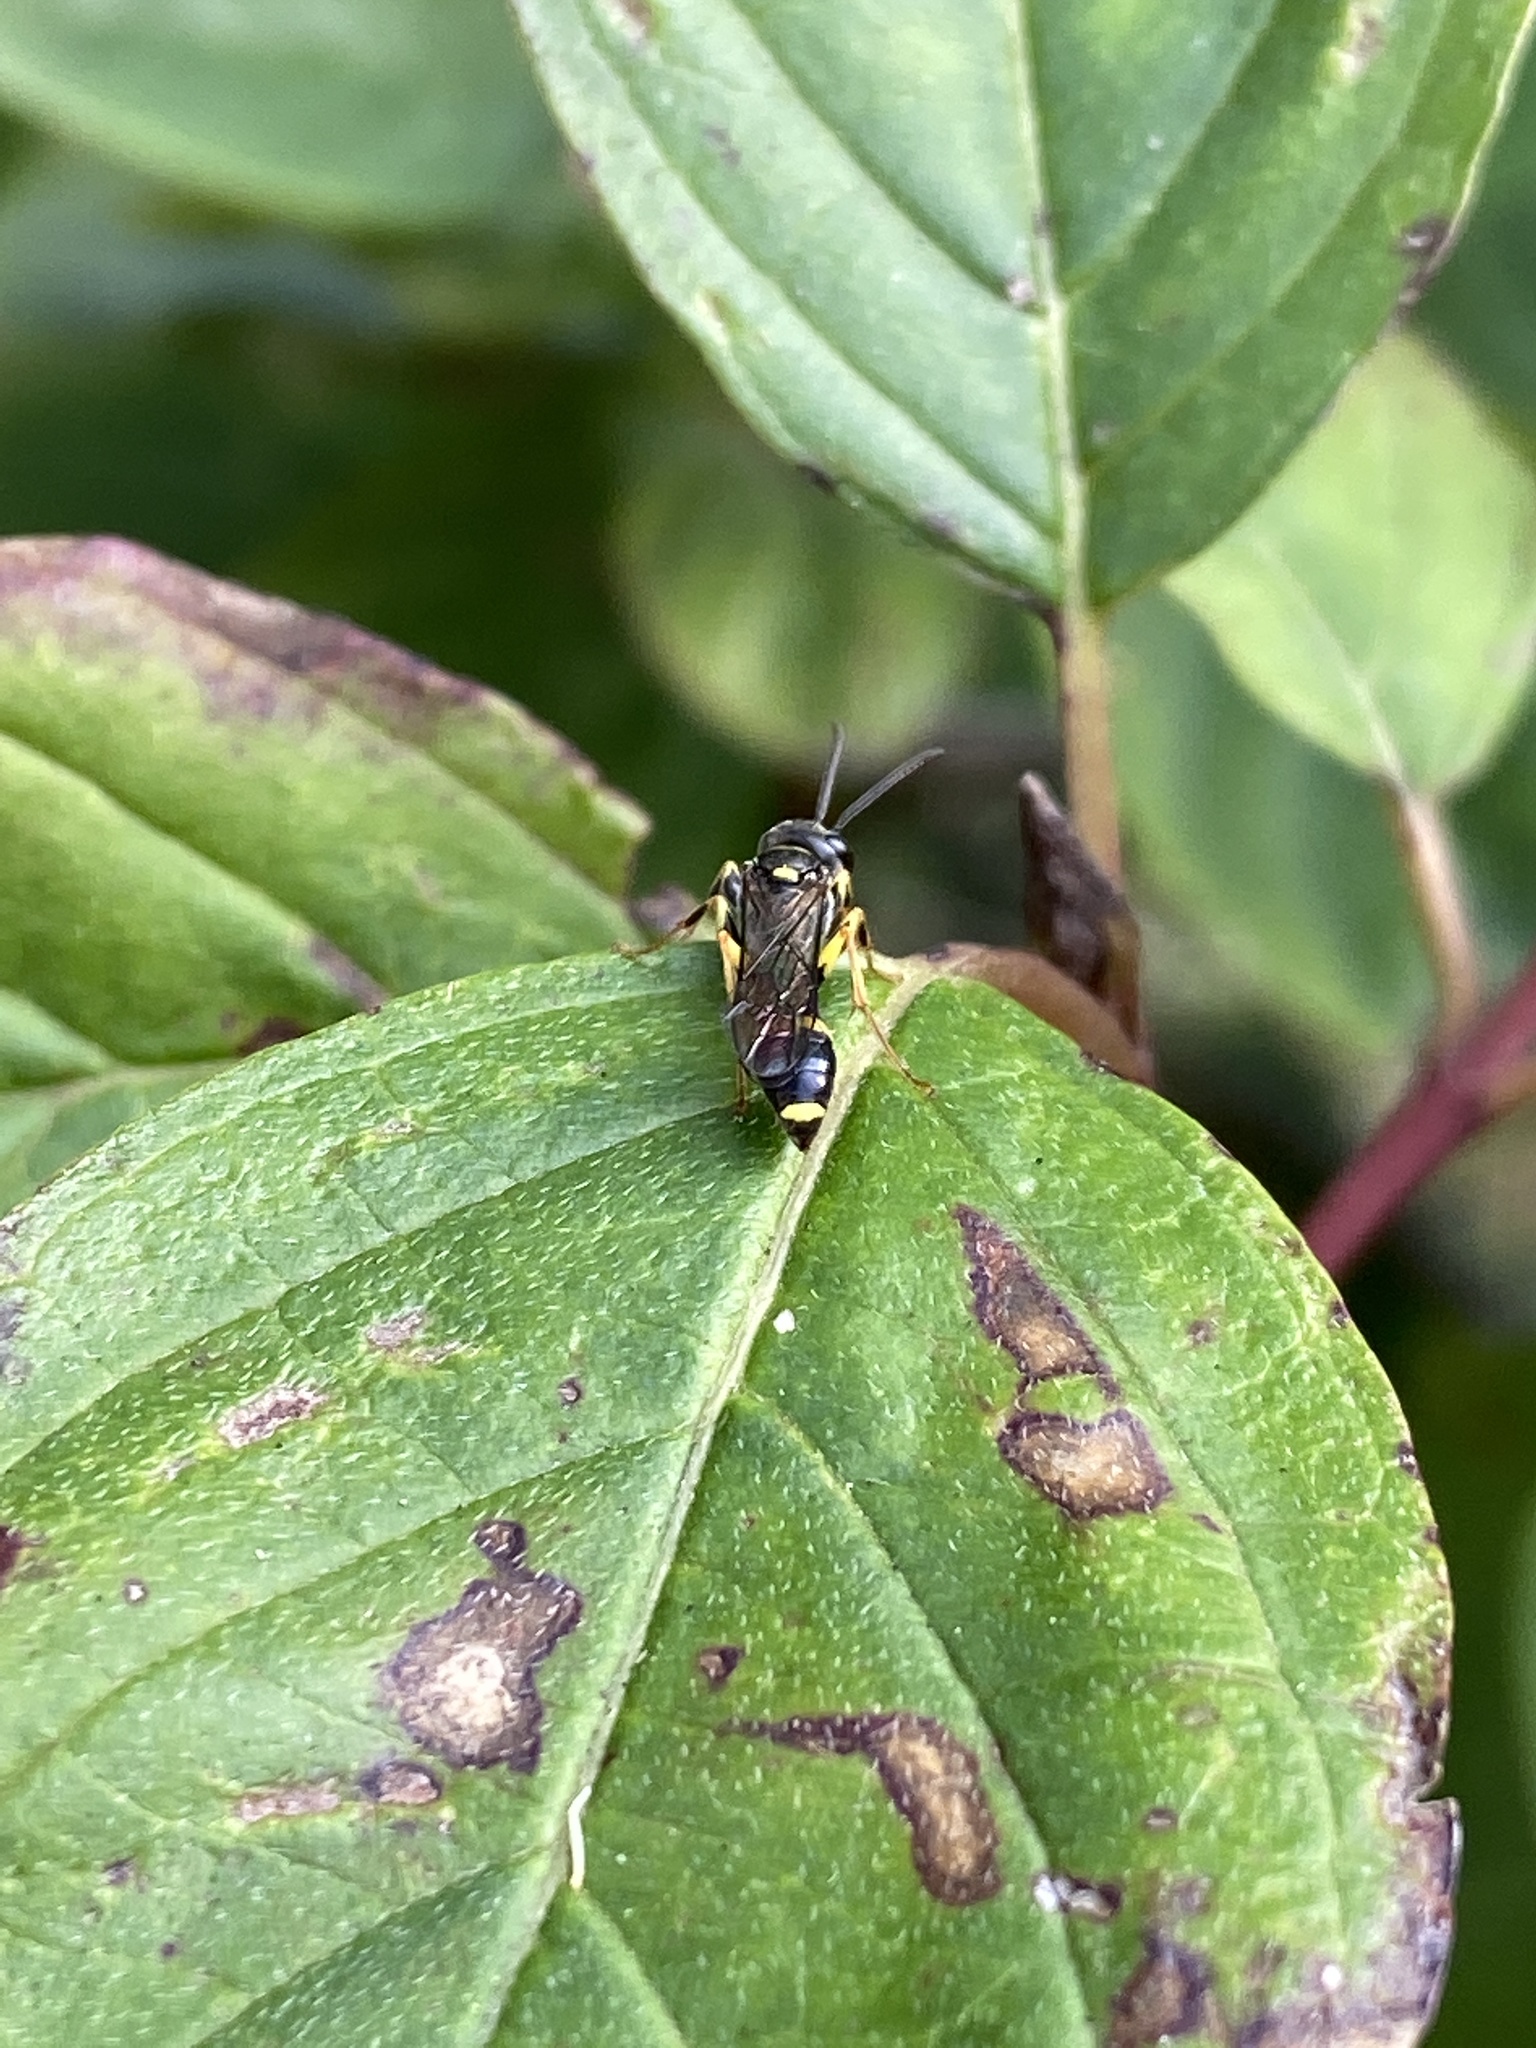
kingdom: Animalia
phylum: Arthropoda
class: Insecta
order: Hymenoptera
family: Crabronidae
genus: Mellinus
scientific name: Mellinus arvensis
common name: Field digger wasp
